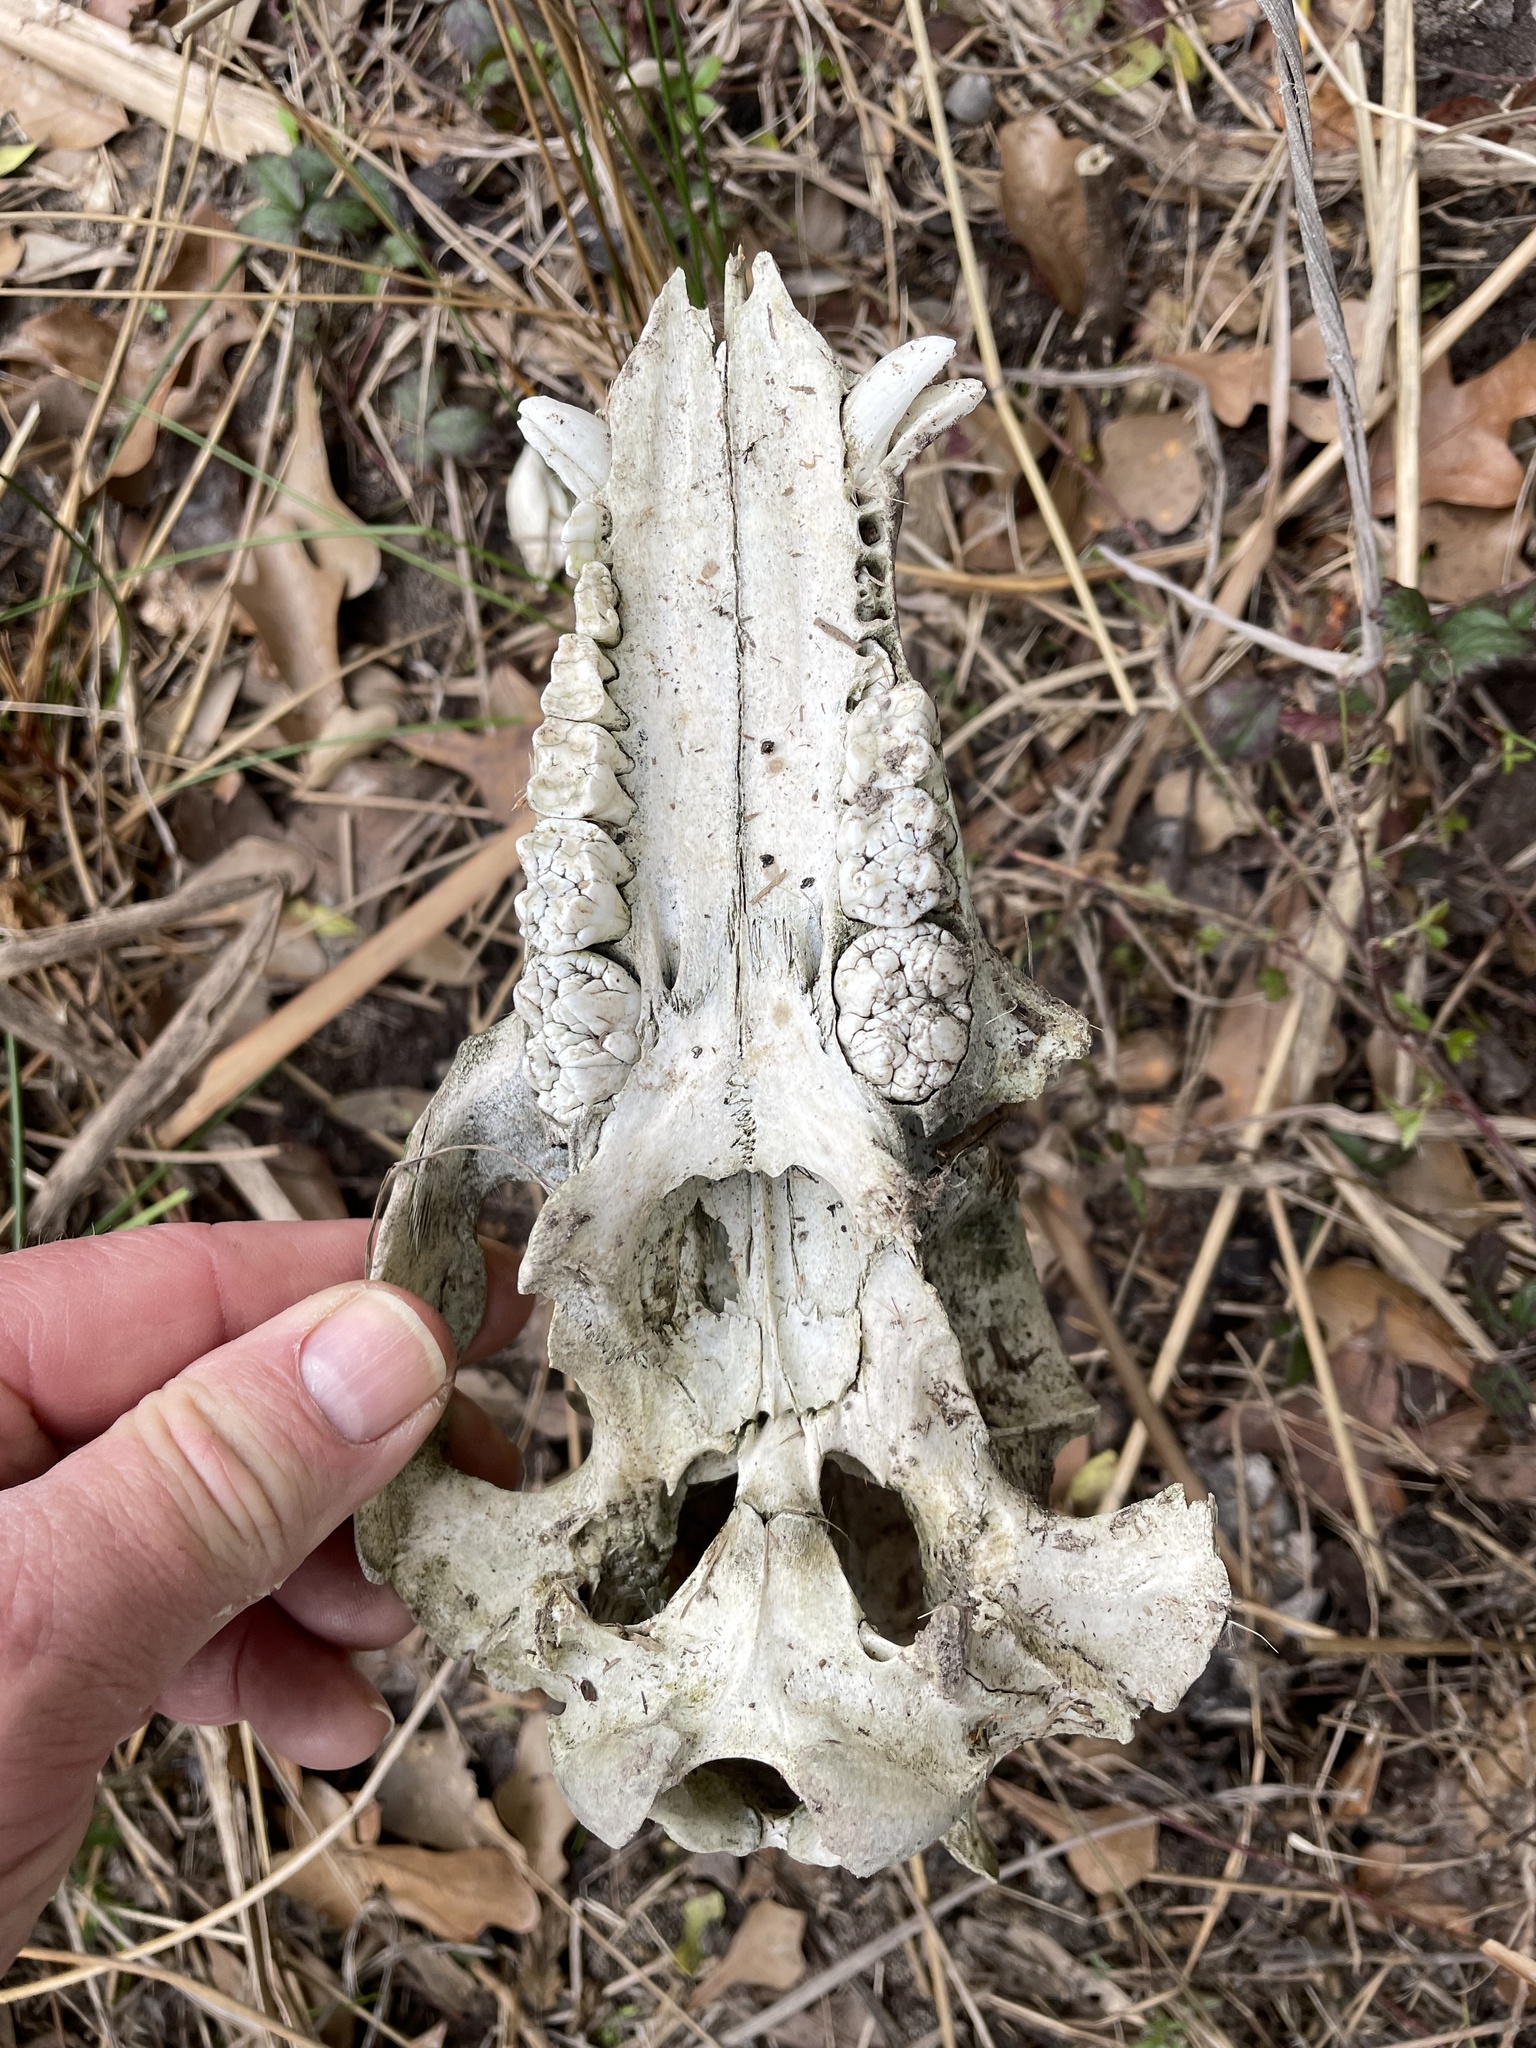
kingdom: Animalia
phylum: Chordata
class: Mammalia
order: Artiodactyla
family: Suidae
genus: Sus
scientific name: Sus scrofa
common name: Wild boar
